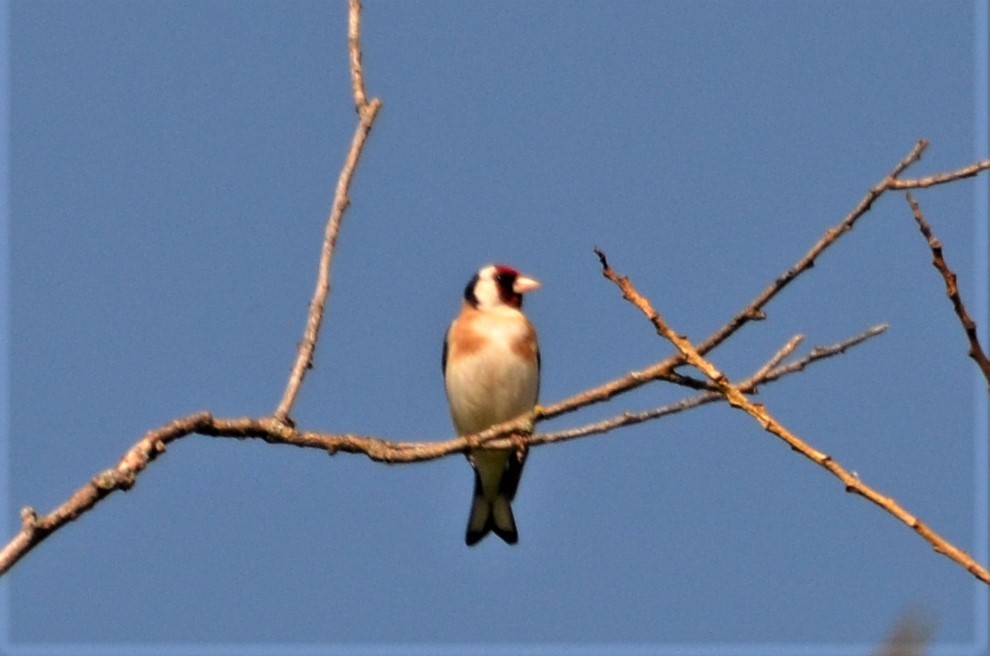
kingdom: Animalia
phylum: Chordata
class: Aves
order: Passeriformes
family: Fringillidae
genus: Carduelis
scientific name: Carduelis carduelis
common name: European goldfinch
